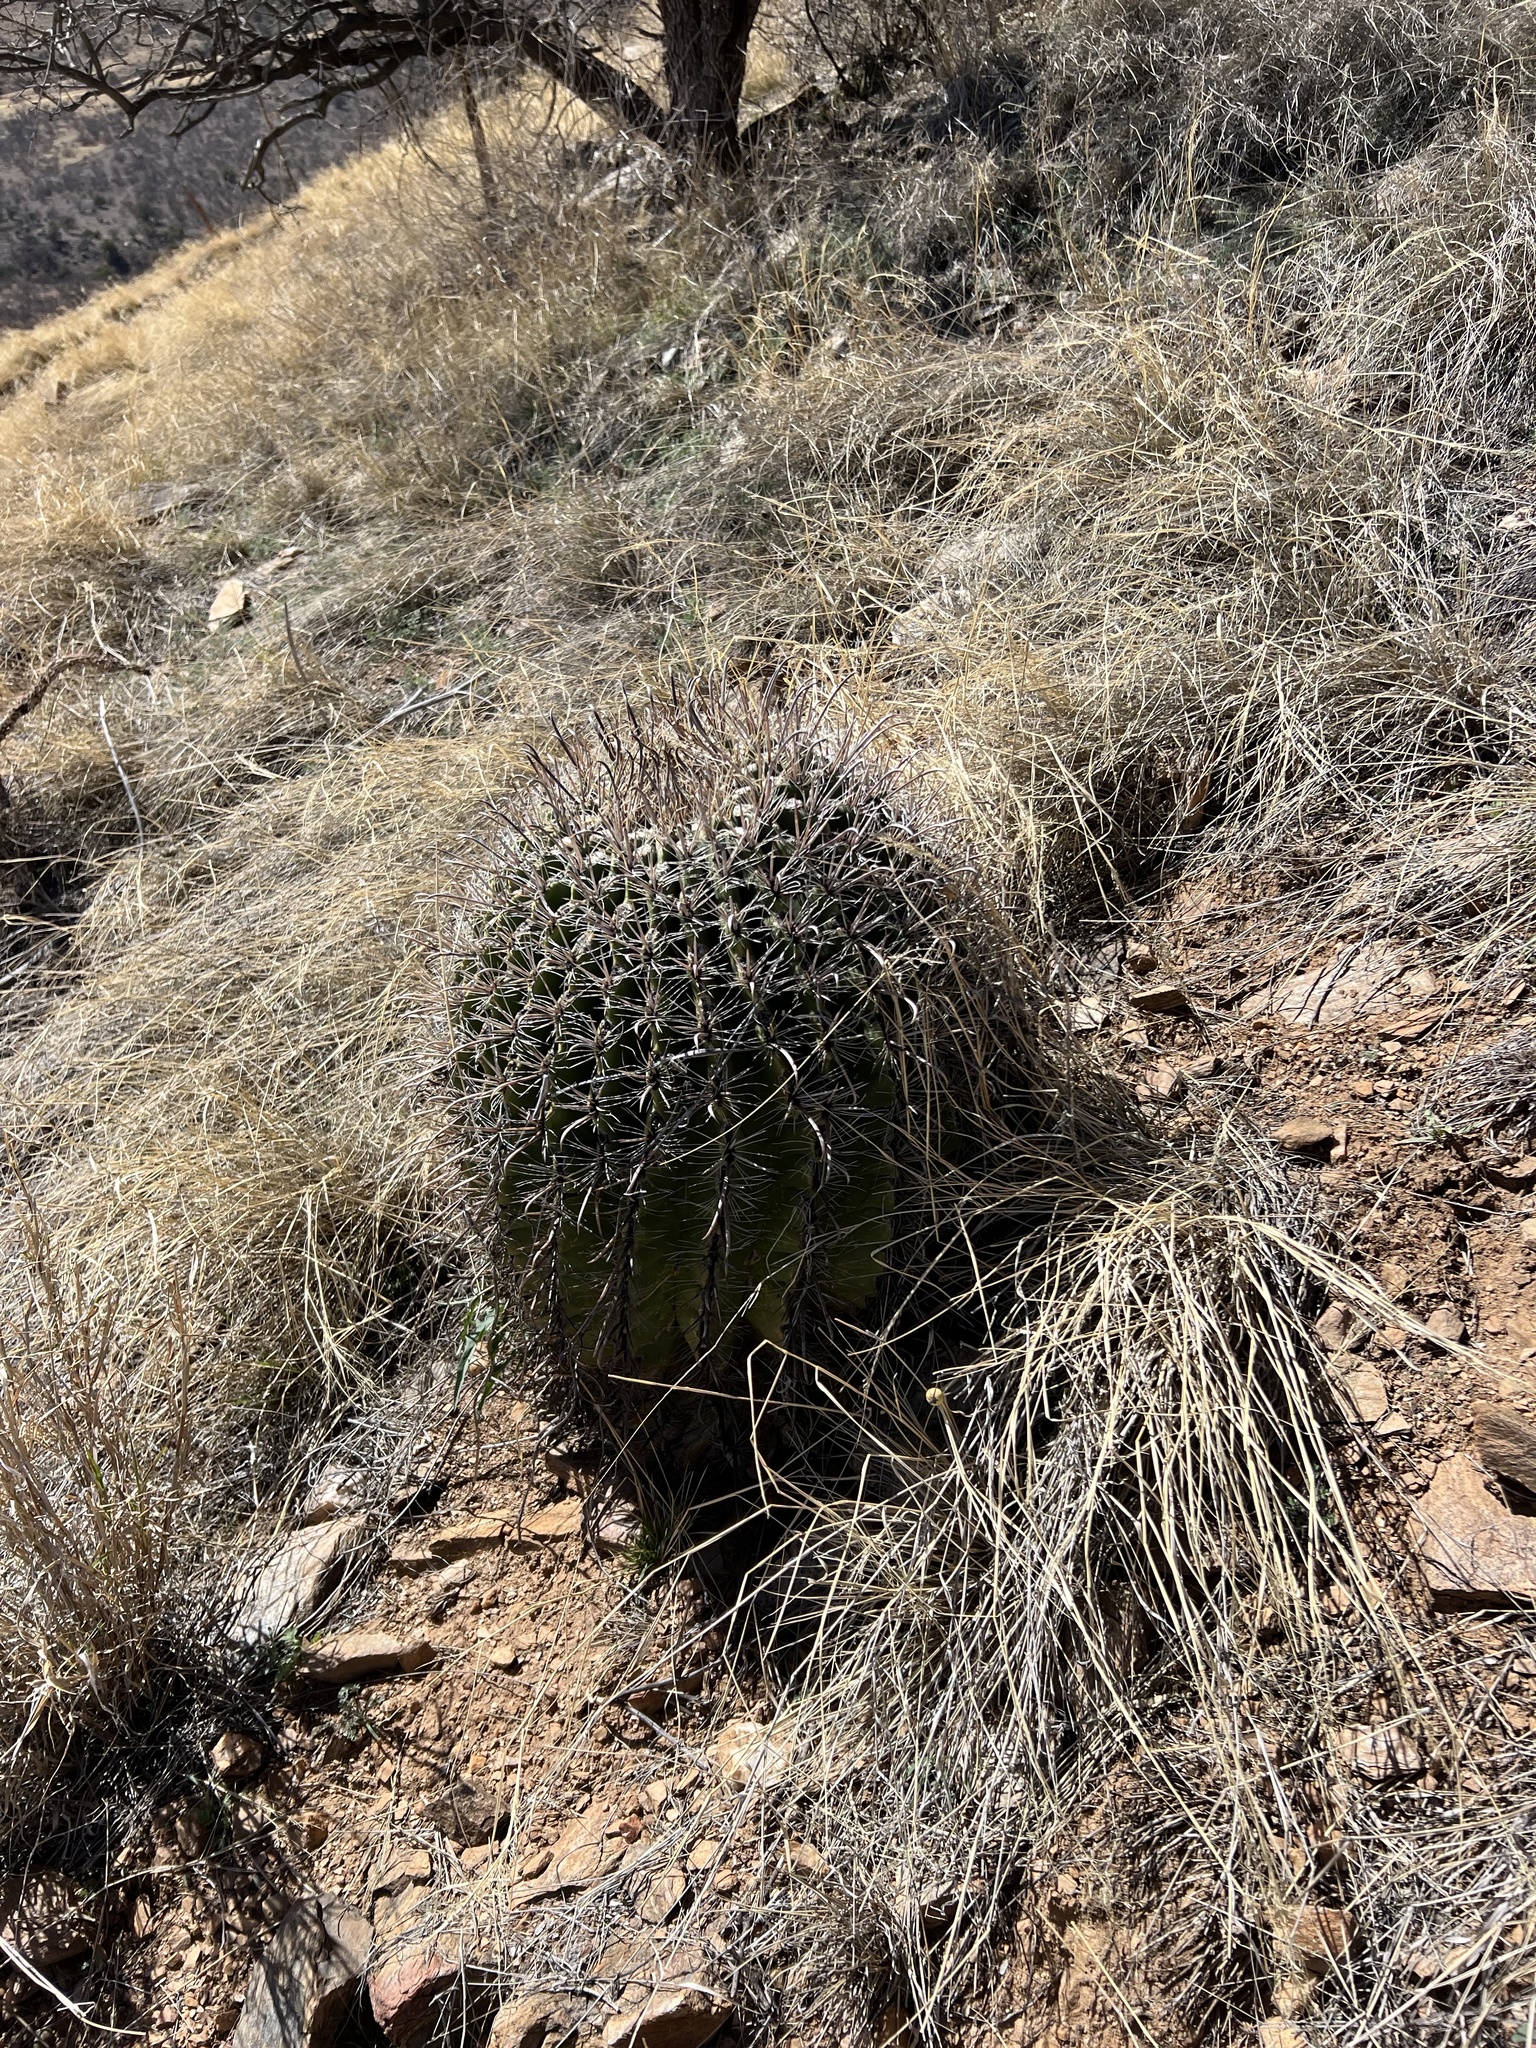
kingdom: Plantae
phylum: Tracheophyta
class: Magnoliopsida
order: Caryophyllales
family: Cactaceae
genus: Ferocactus
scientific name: Ferocactus wislizeni
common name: Candy barrel cactus
